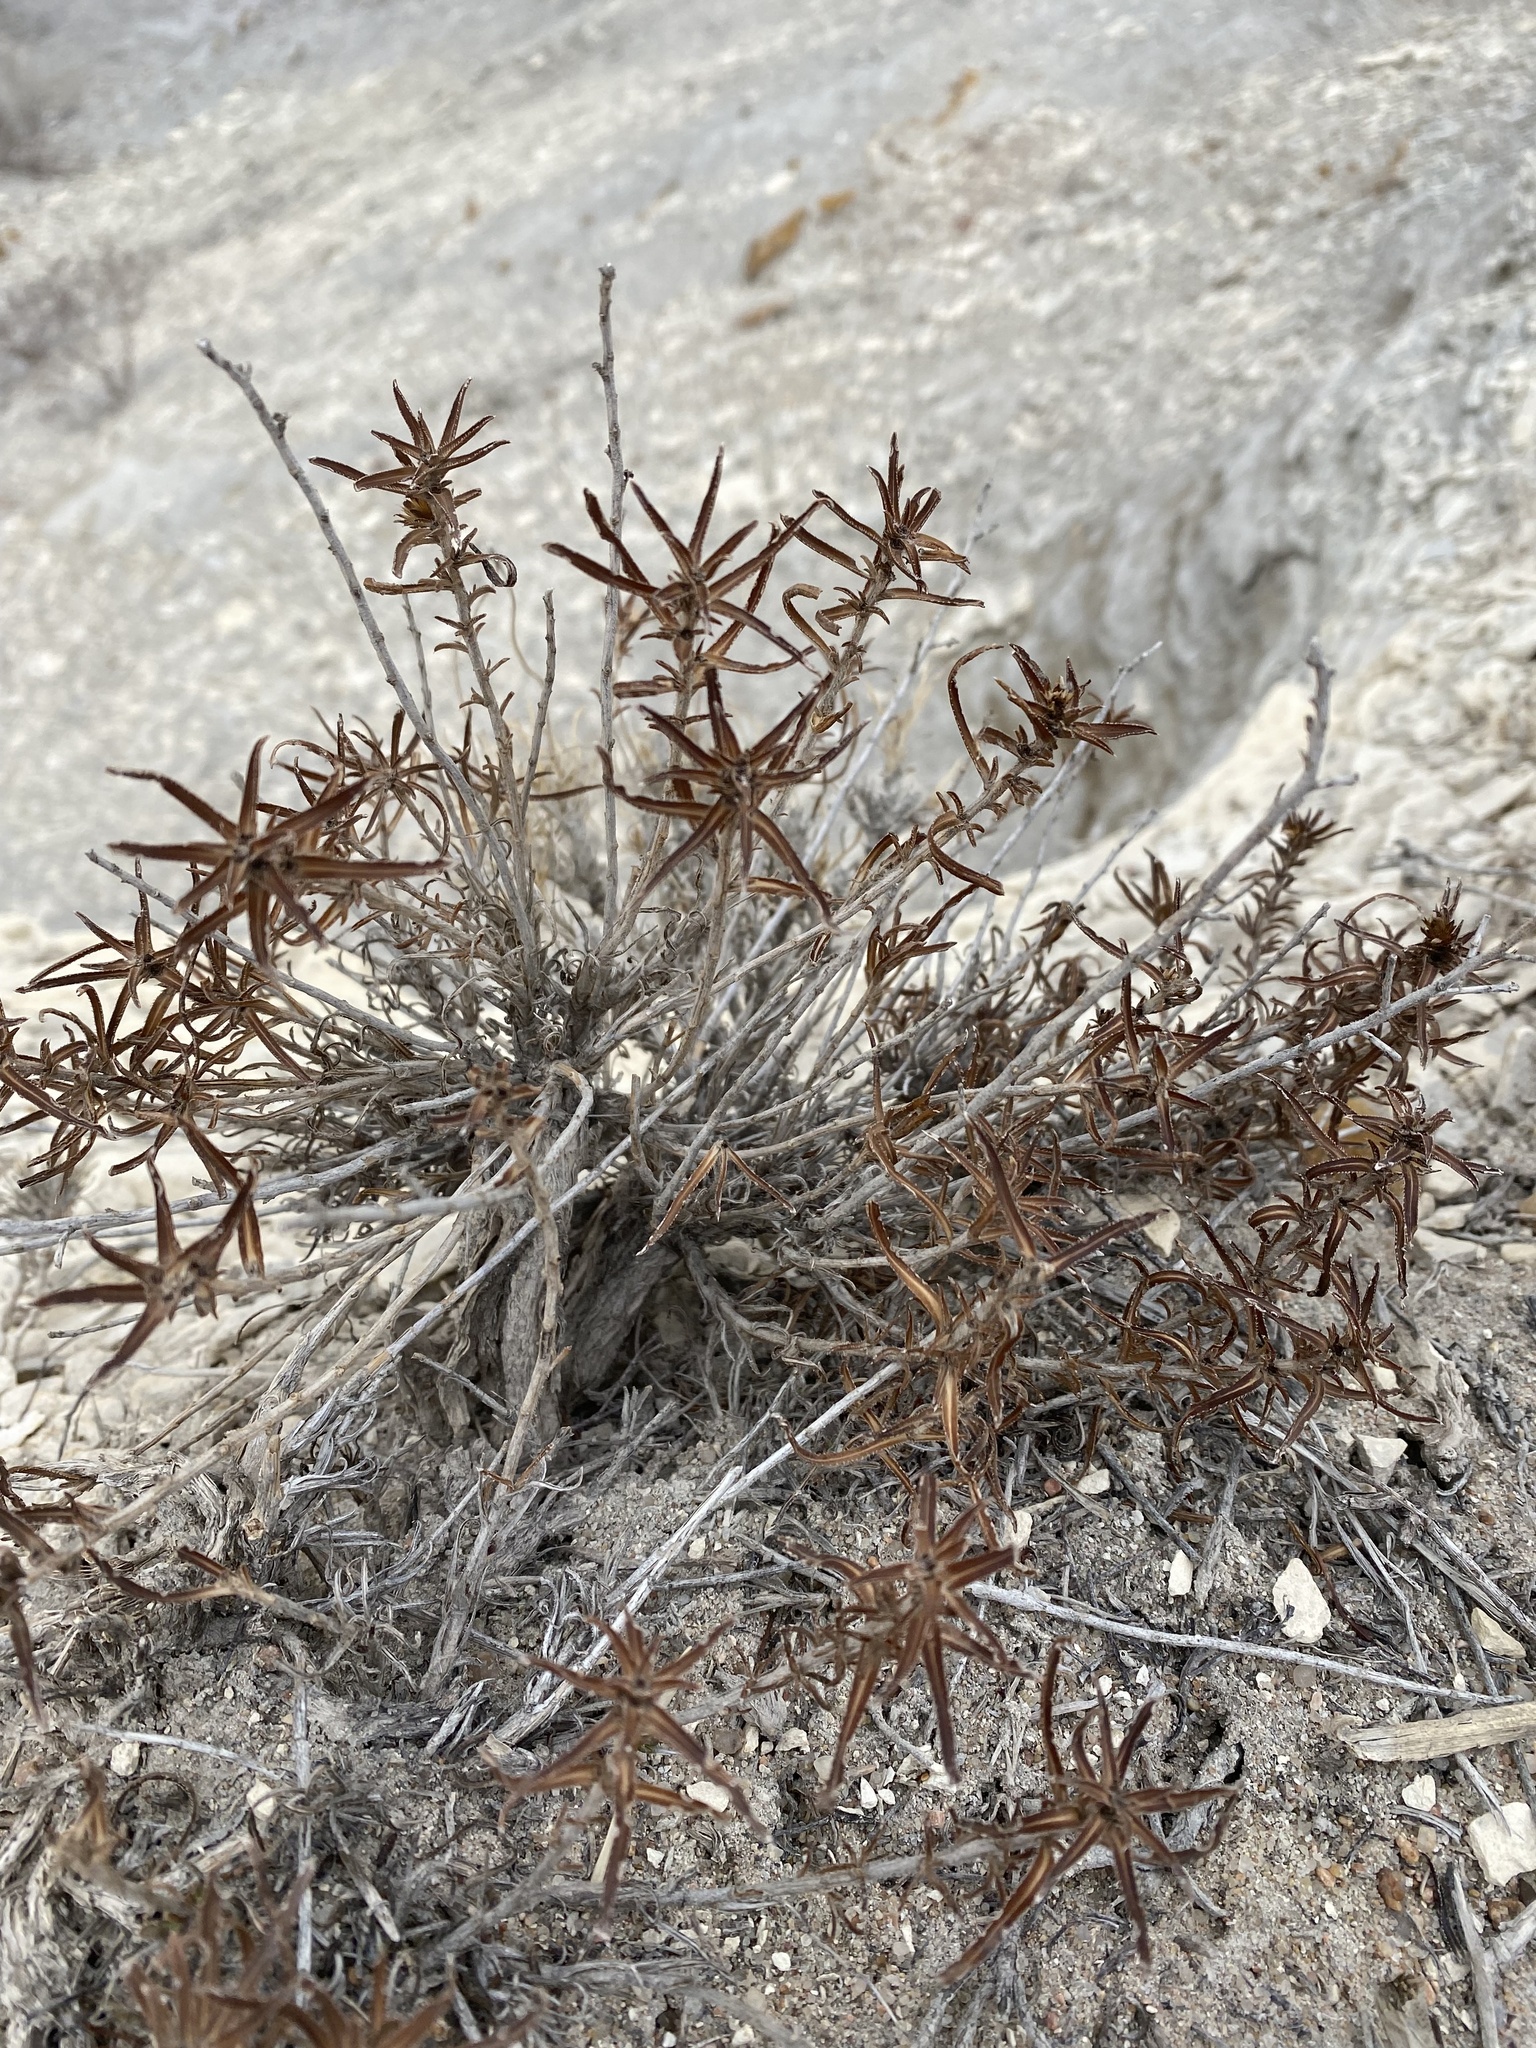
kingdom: Plantae
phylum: Tracheophyta
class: Magnoliopsida
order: Caryophyllales
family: Polygonaceae
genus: Eriogonum
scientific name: Eriogonum helichrysoides
